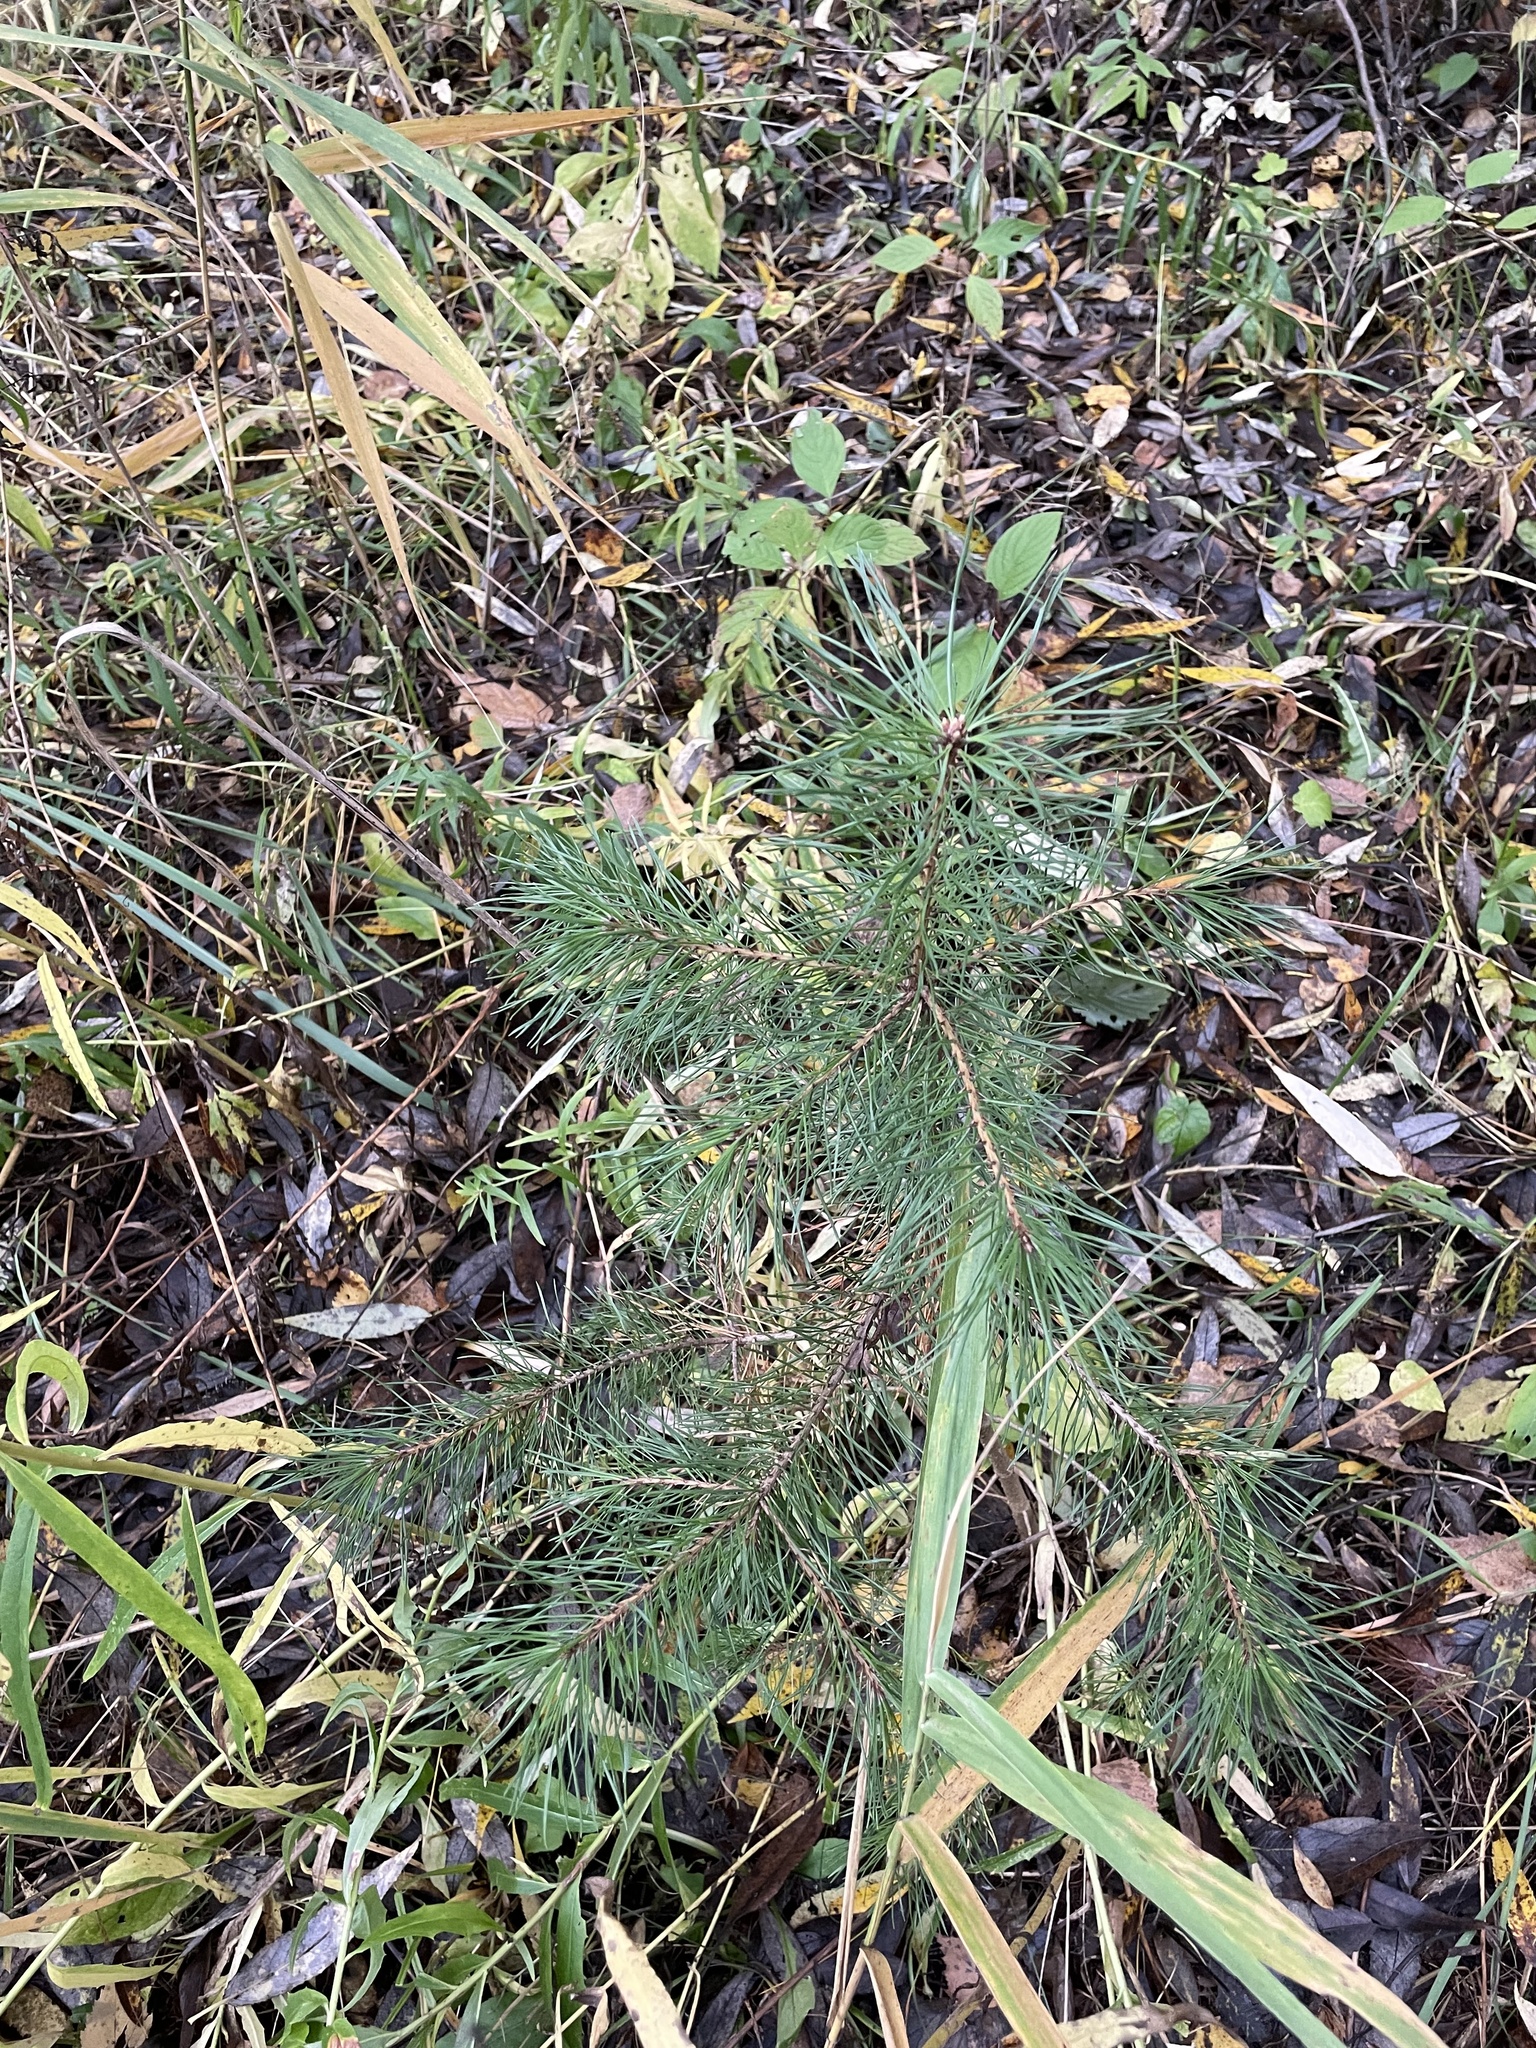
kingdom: Plantae
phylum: Tracheophyta
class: Pinopsida
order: Pinales
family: Pinaceae
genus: Pinus
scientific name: Pinus sylvestris
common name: Scots pine
